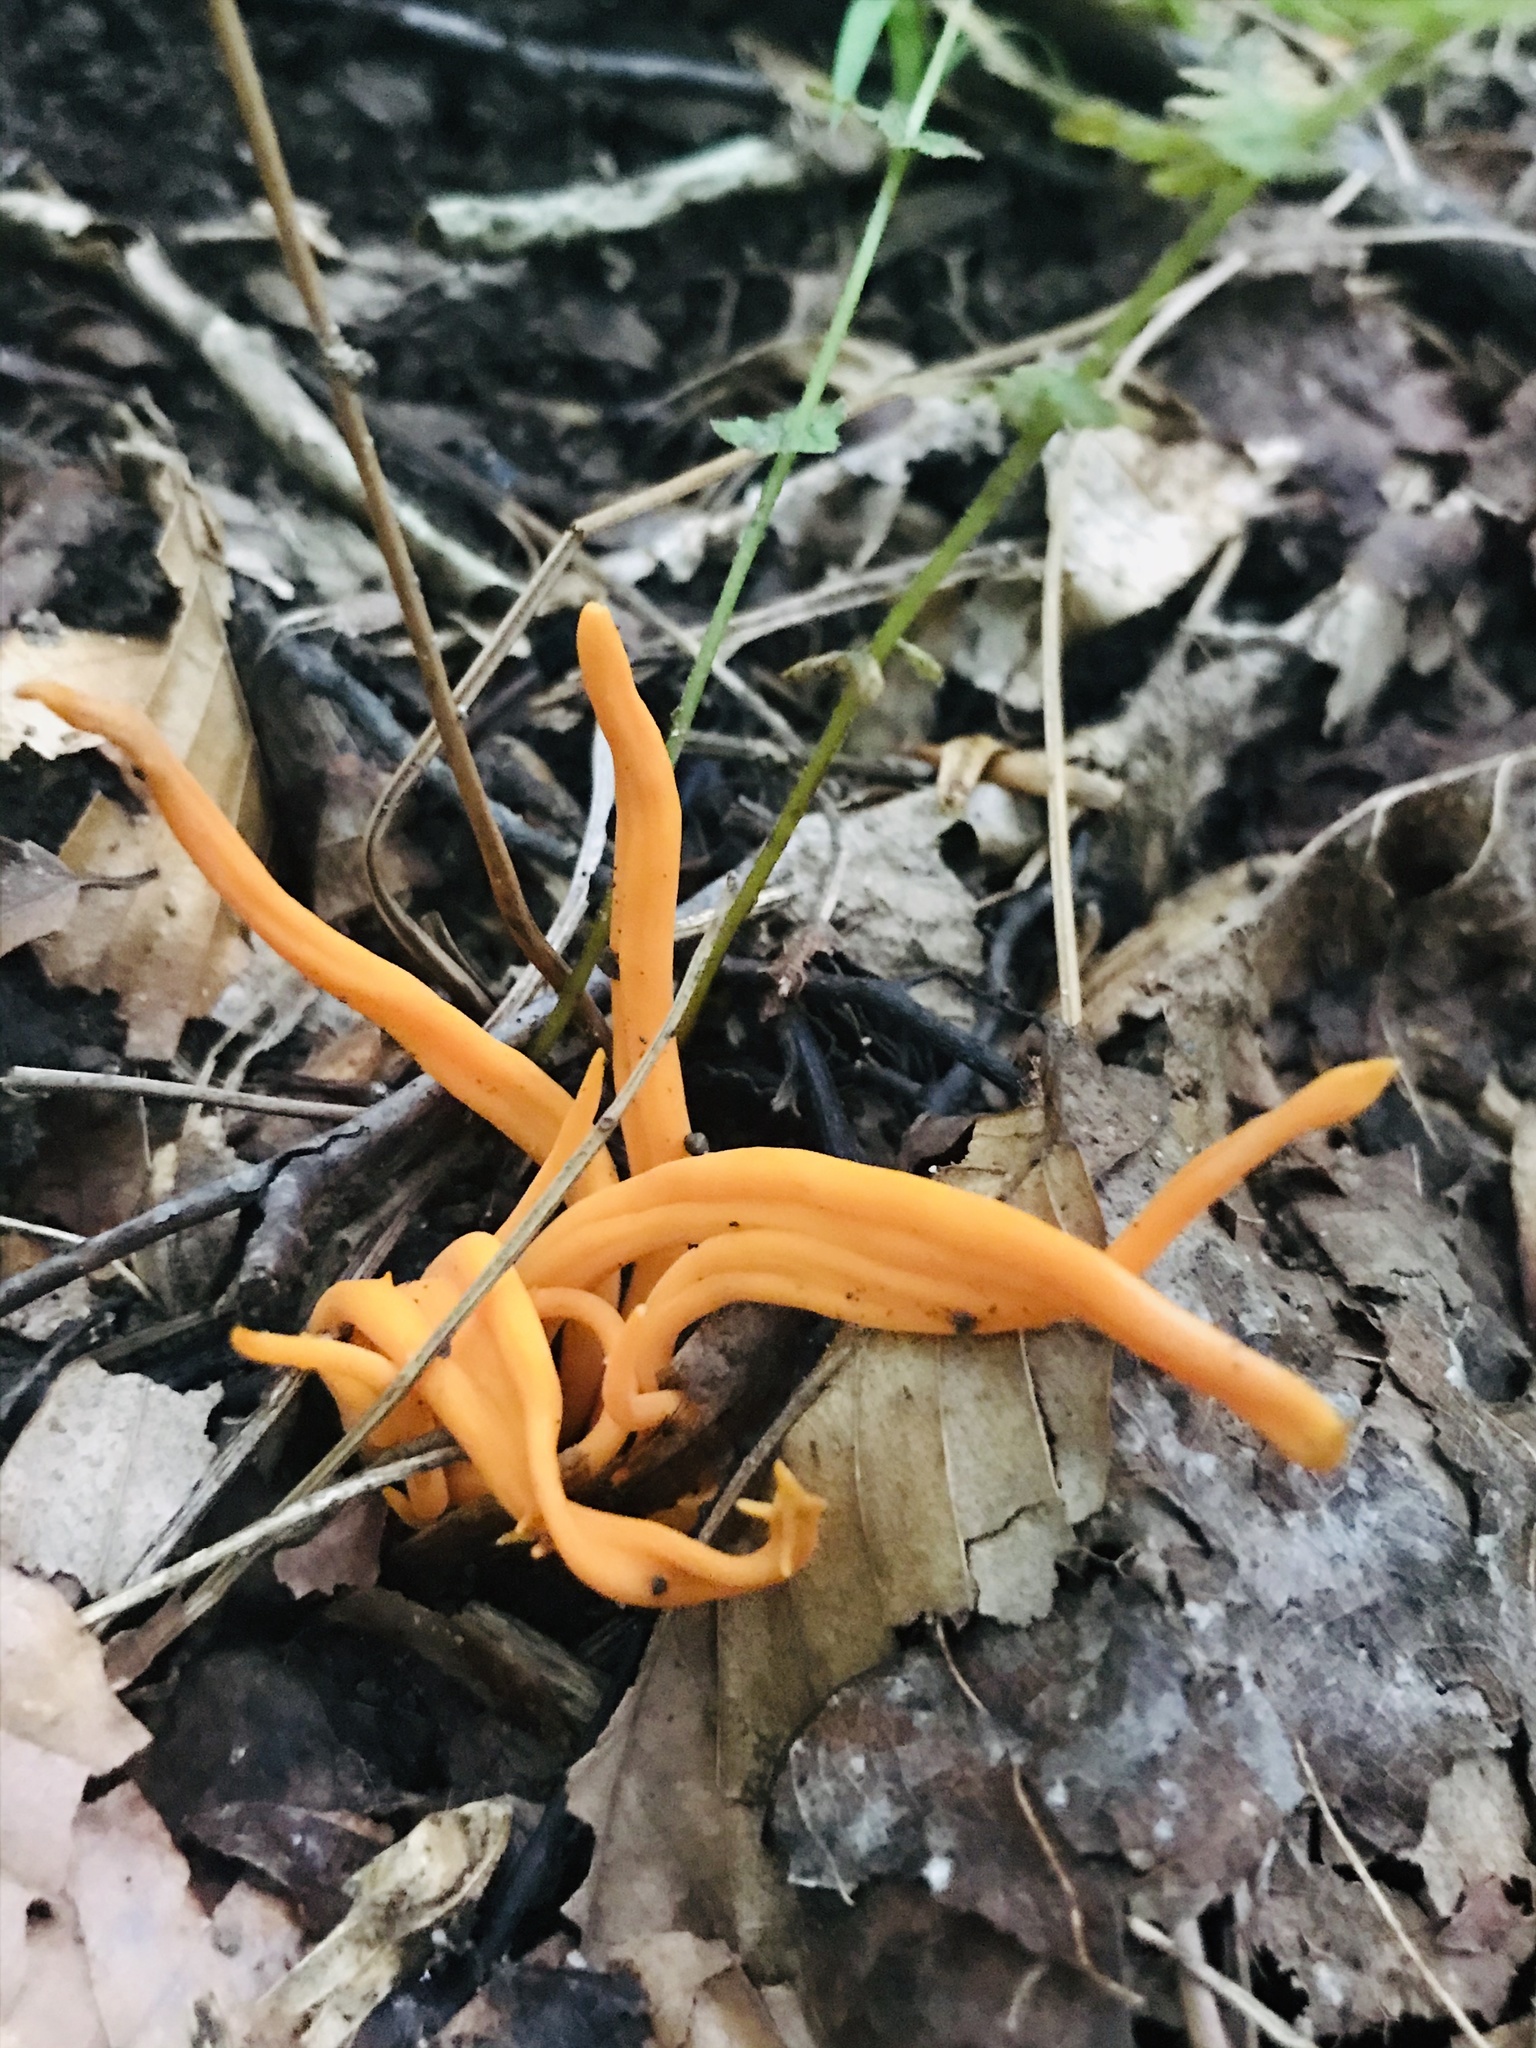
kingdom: Fungi
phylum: Basidiomycota
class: Agaricomycetes
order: Agaricales
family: Clavariaceae
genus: Clavulinopsis
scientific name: Clavulinopsis aurantiocinnabarina
